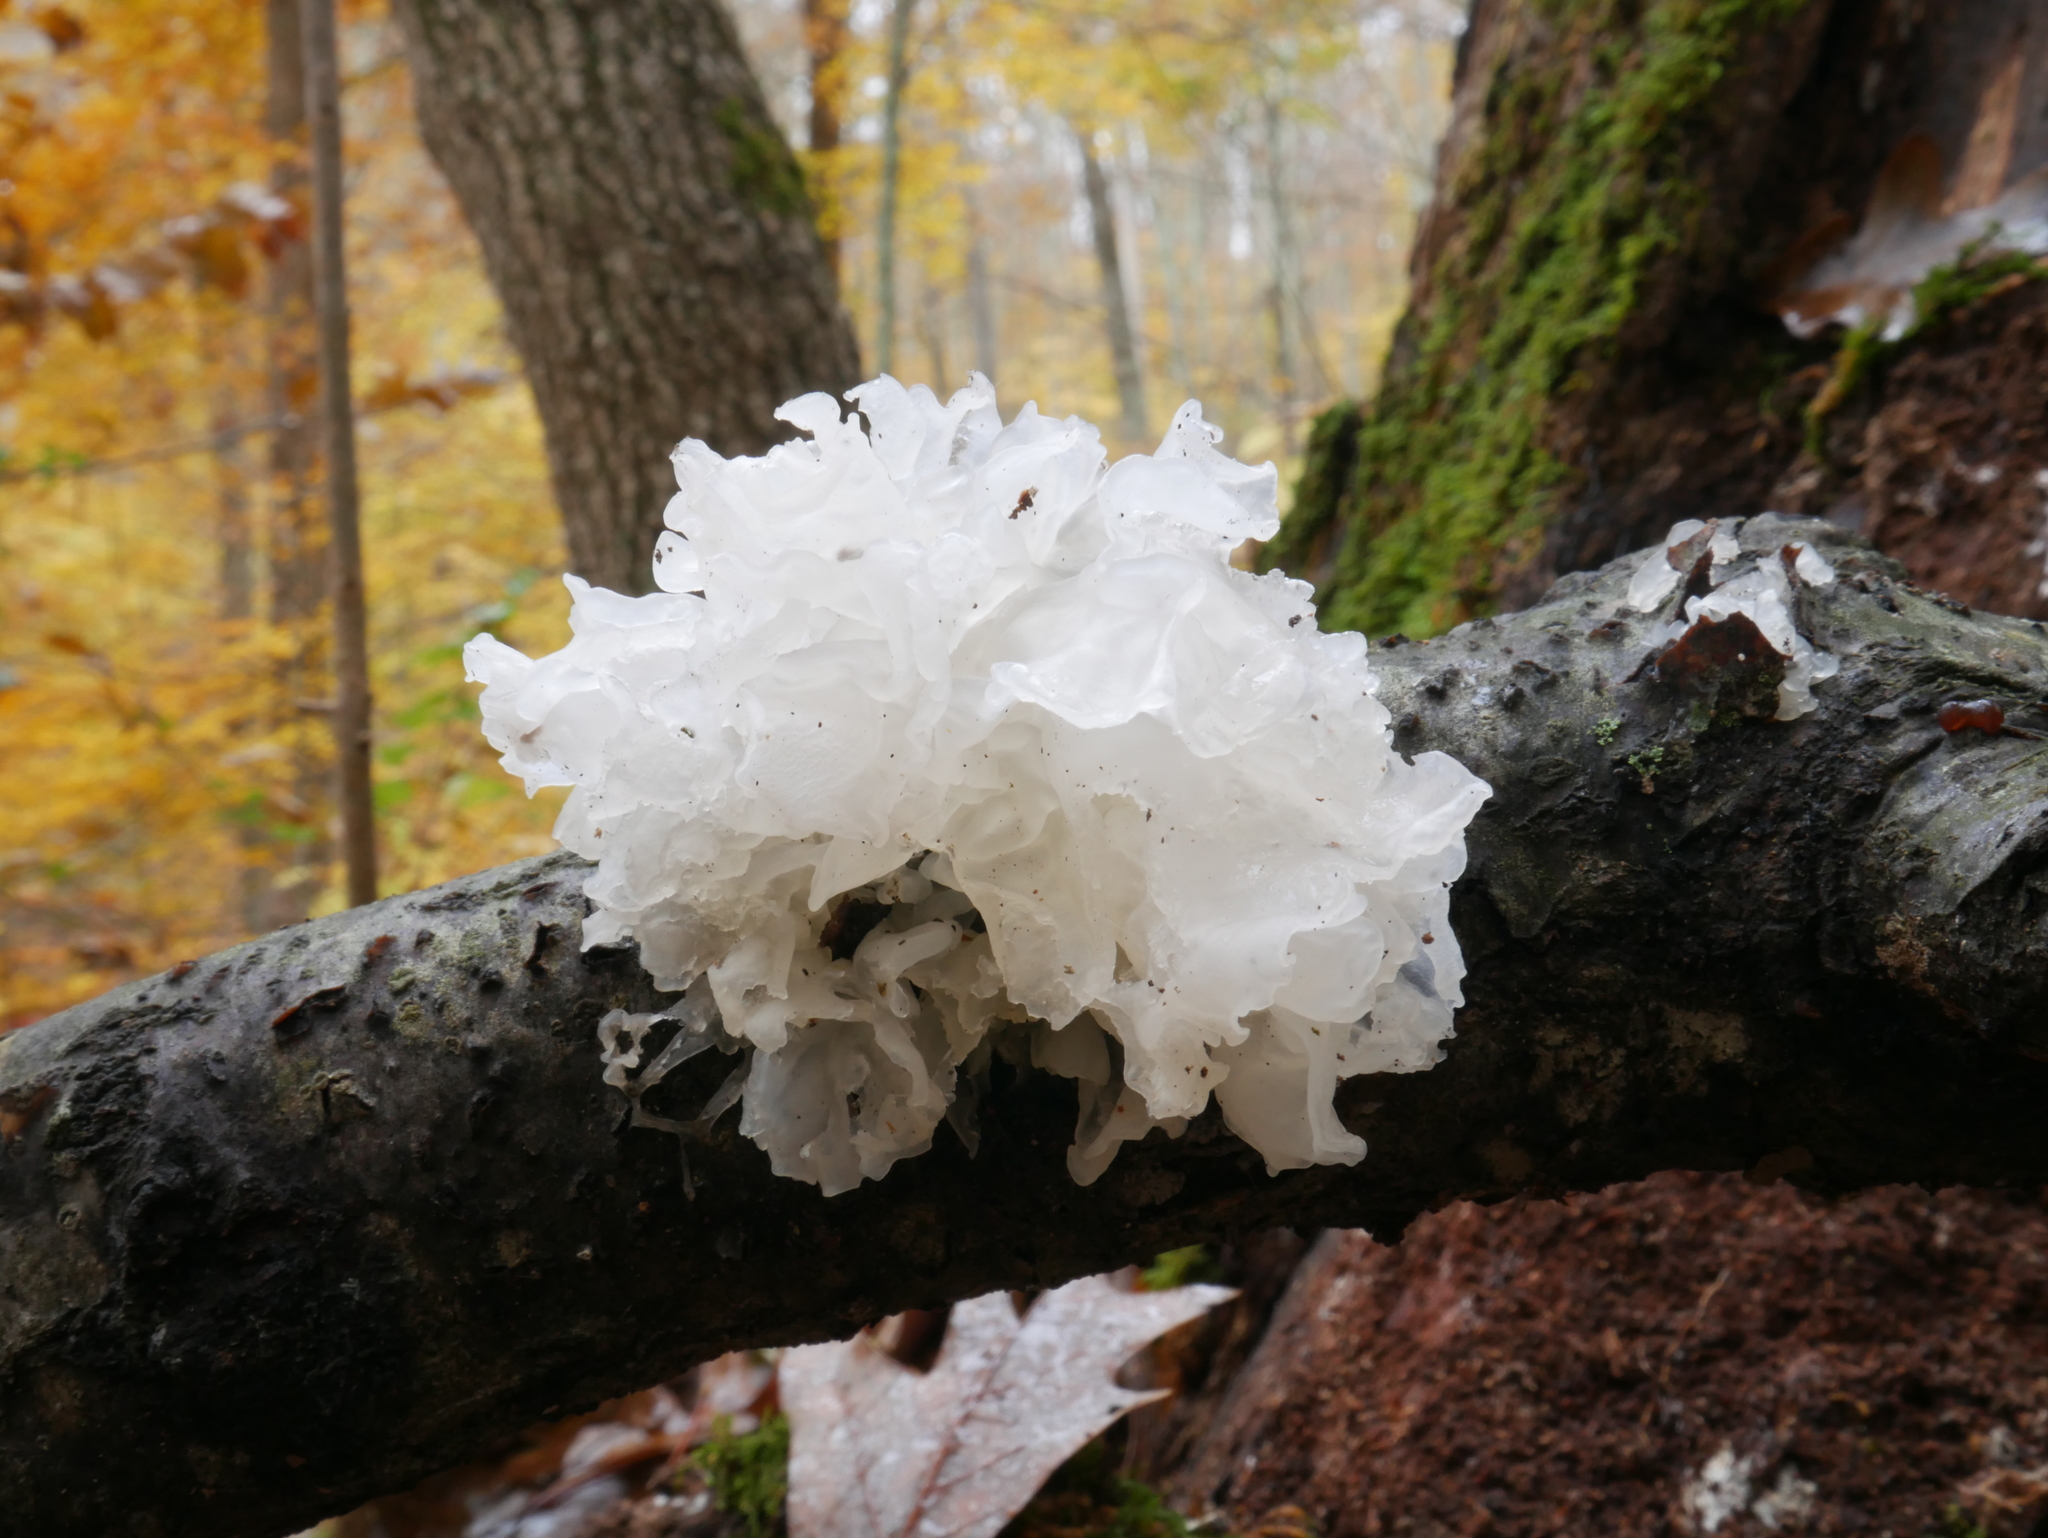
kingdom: Fungi
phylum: Basidiomycota
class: Tremellomycetes
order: Tremellales
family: Tremellaceae
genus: Tremella
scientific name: Tremella fuciformis
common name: Snow fungus
